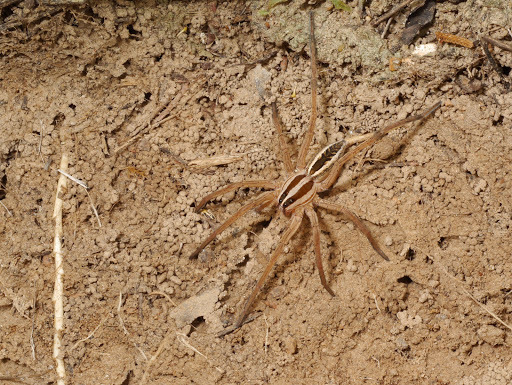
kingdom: Animalia
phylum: Arthropoda
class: Arachnida
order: Araneae
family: Lycosidae
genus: Rabidosa
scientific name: Rabidosa punctulata
